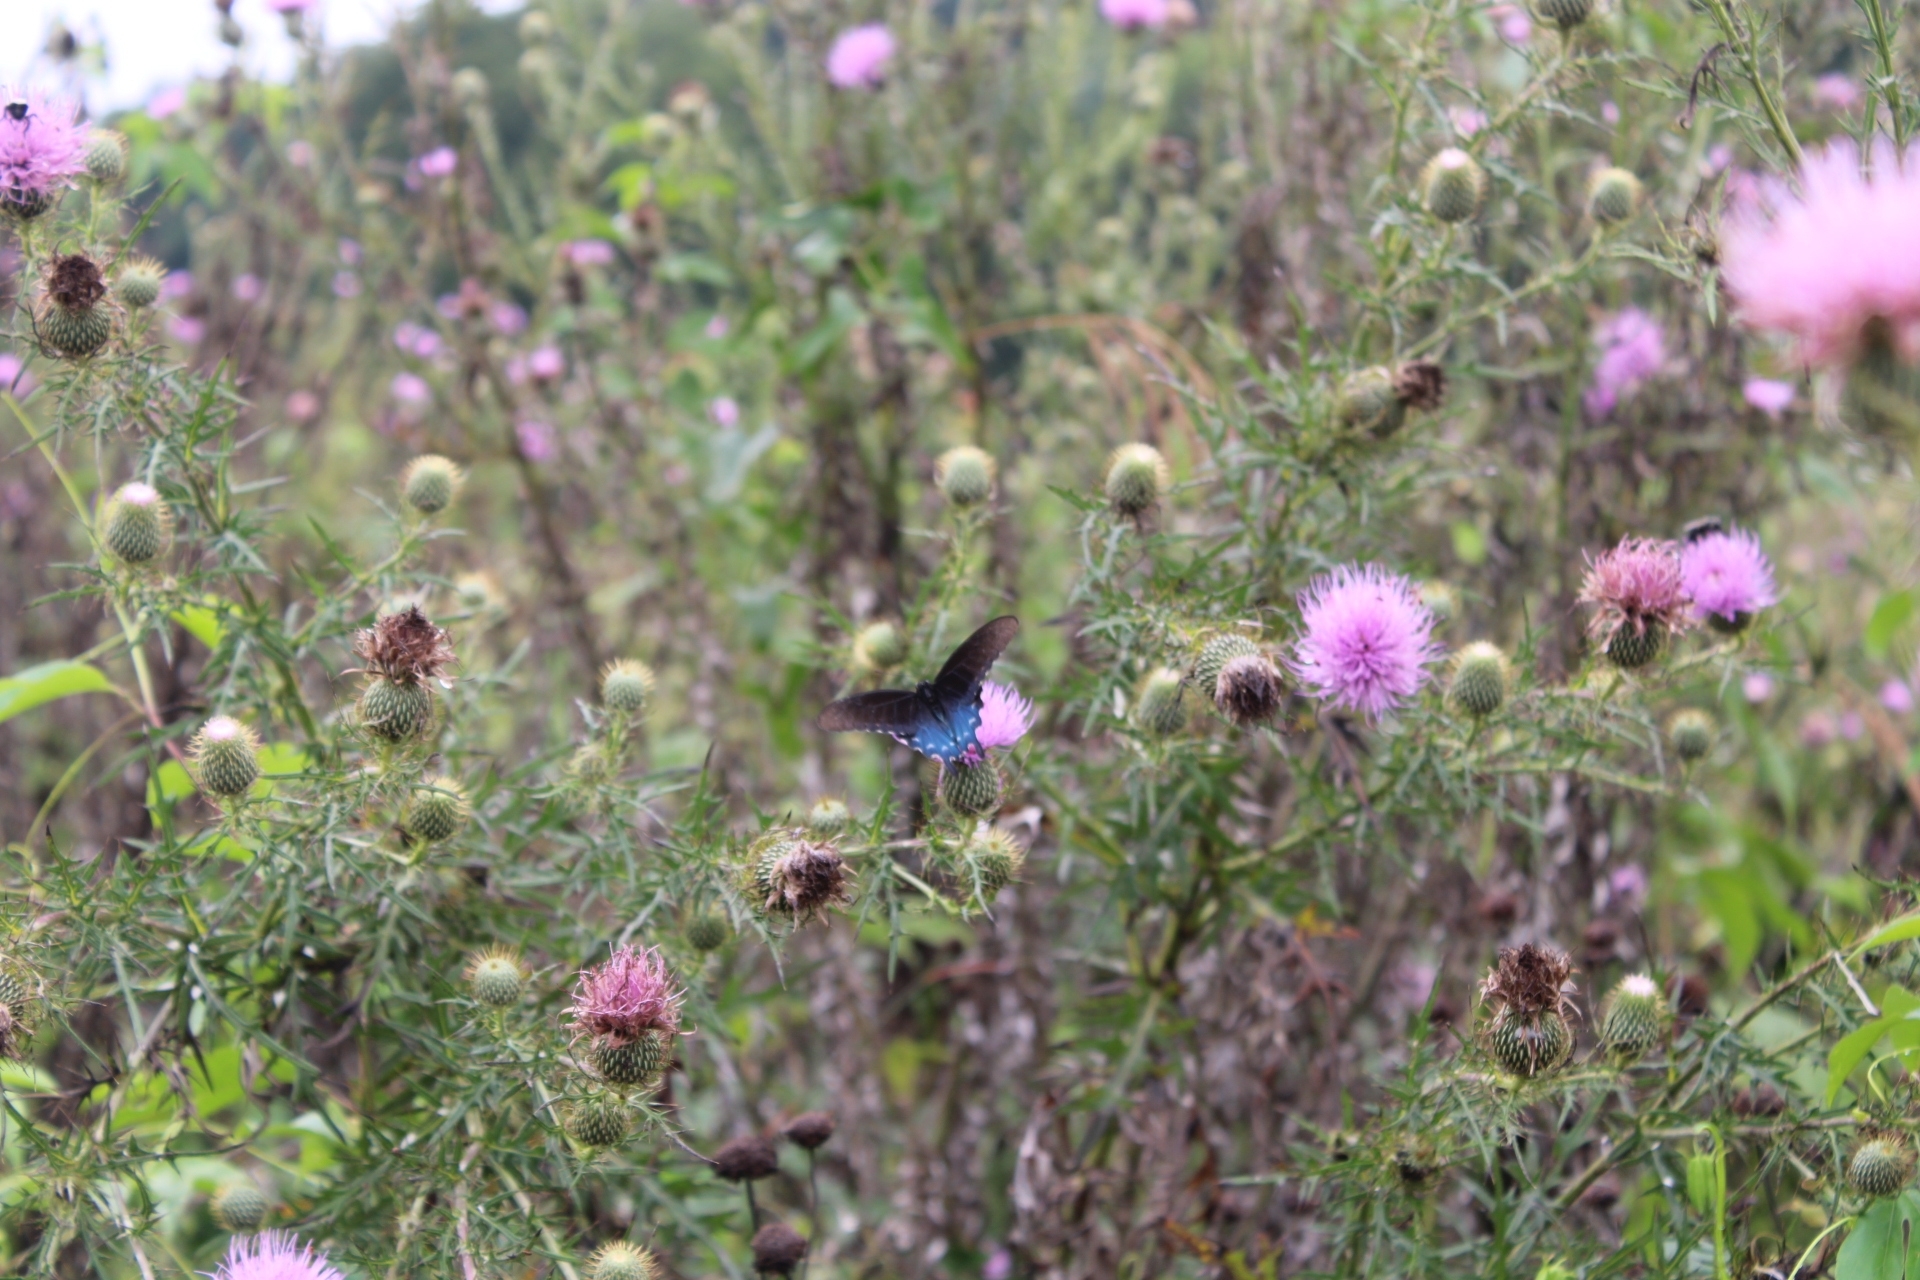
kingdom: Plantae
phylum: Tracheophyta
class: Magnoliopsida
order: Asterales
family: Asteraceae
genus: Cirsium
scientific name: Cirsium discolor
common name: Field thistle
